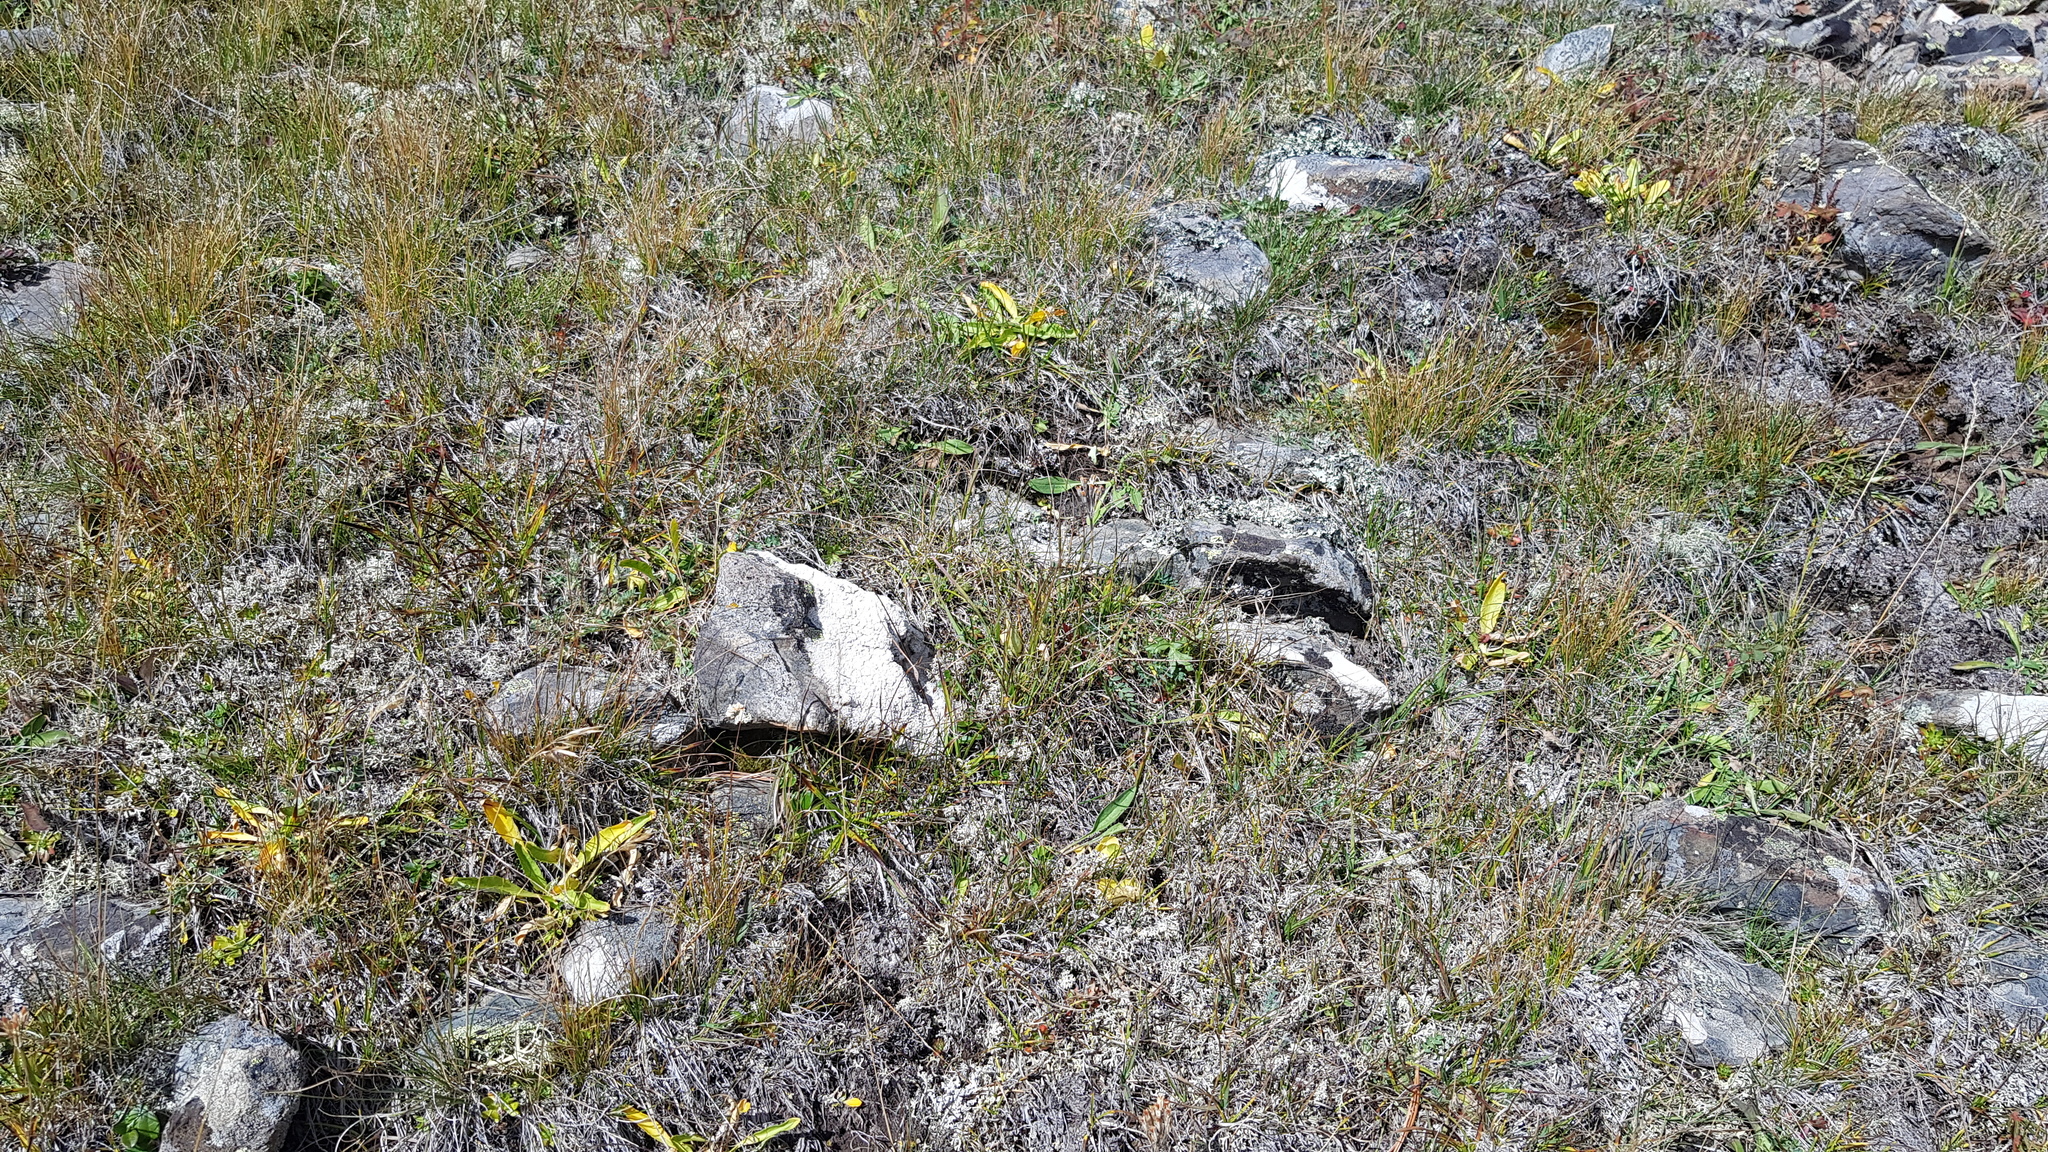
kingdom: Plantae
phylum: Tracheophyta
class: Magnoliopsida
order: Saxifragales
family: Saxifragaceae
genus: Saxifraga
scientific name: Saxifraga hirculus
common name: Yellow marsh saxifrage
